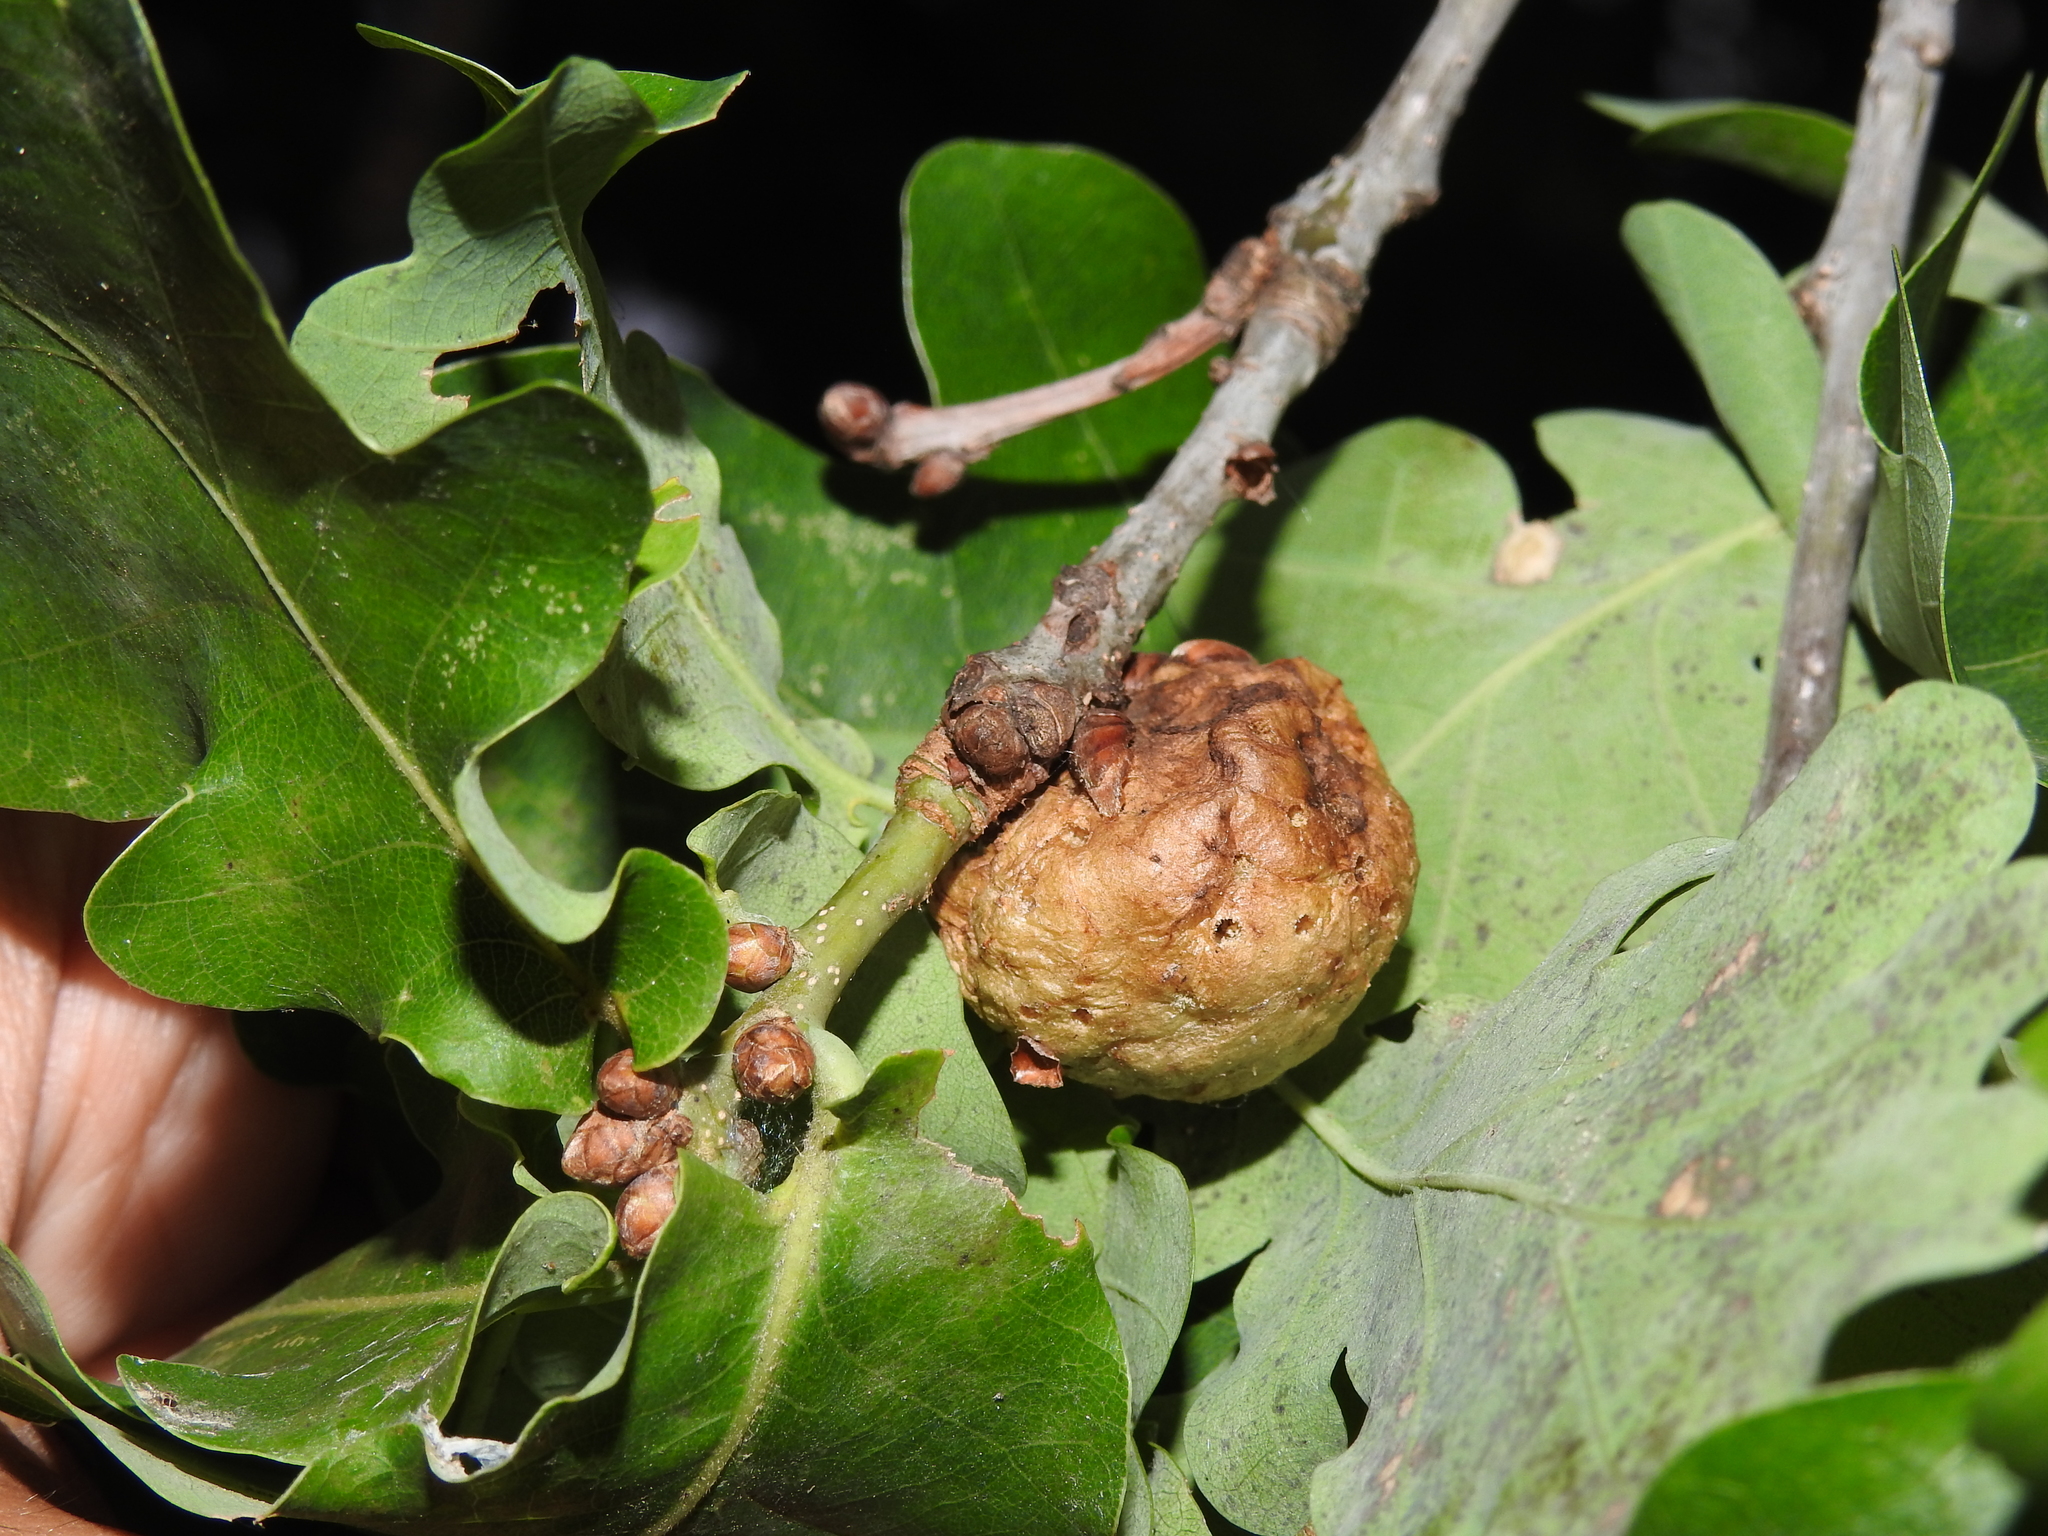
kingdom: Animalia
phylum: Arthropoda
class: Insecta
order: Hymenoptera
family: Cynipidae
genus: Biorhiza
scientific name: Biorhiza pallida
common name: Oak apple
